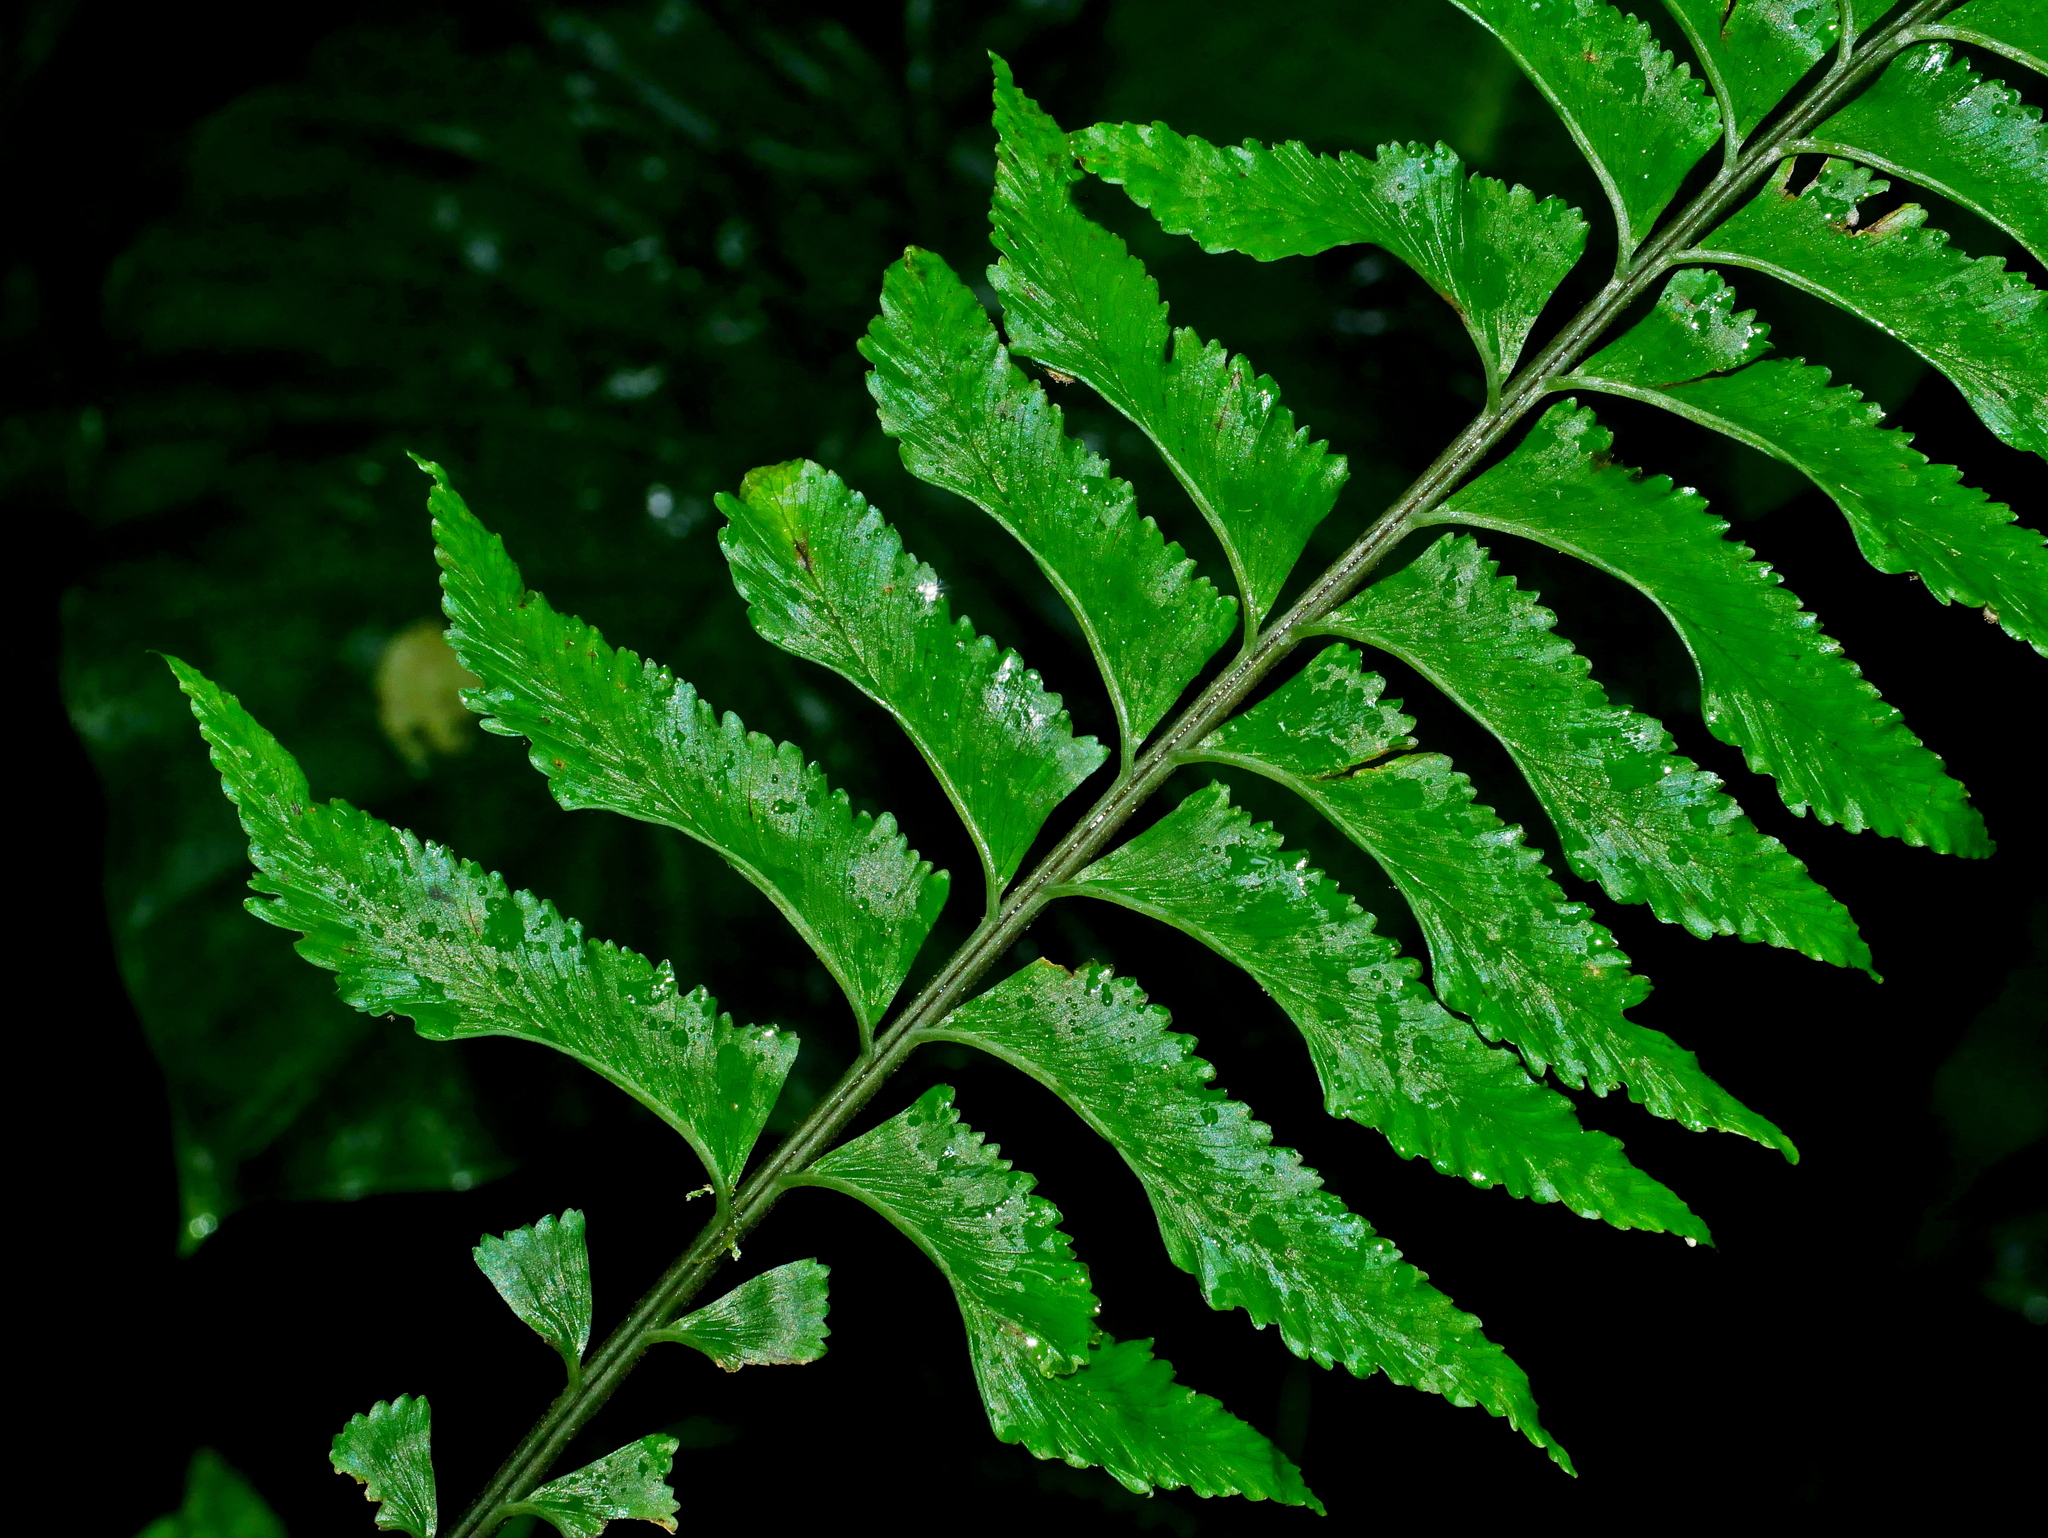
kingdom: Plantae
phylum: Tracheophyta
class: Polypodiopsida
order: Polypodiales
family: Aspleniaceae
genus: Hymenasplenium
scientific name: Hymenasplenium pseudobscurum
